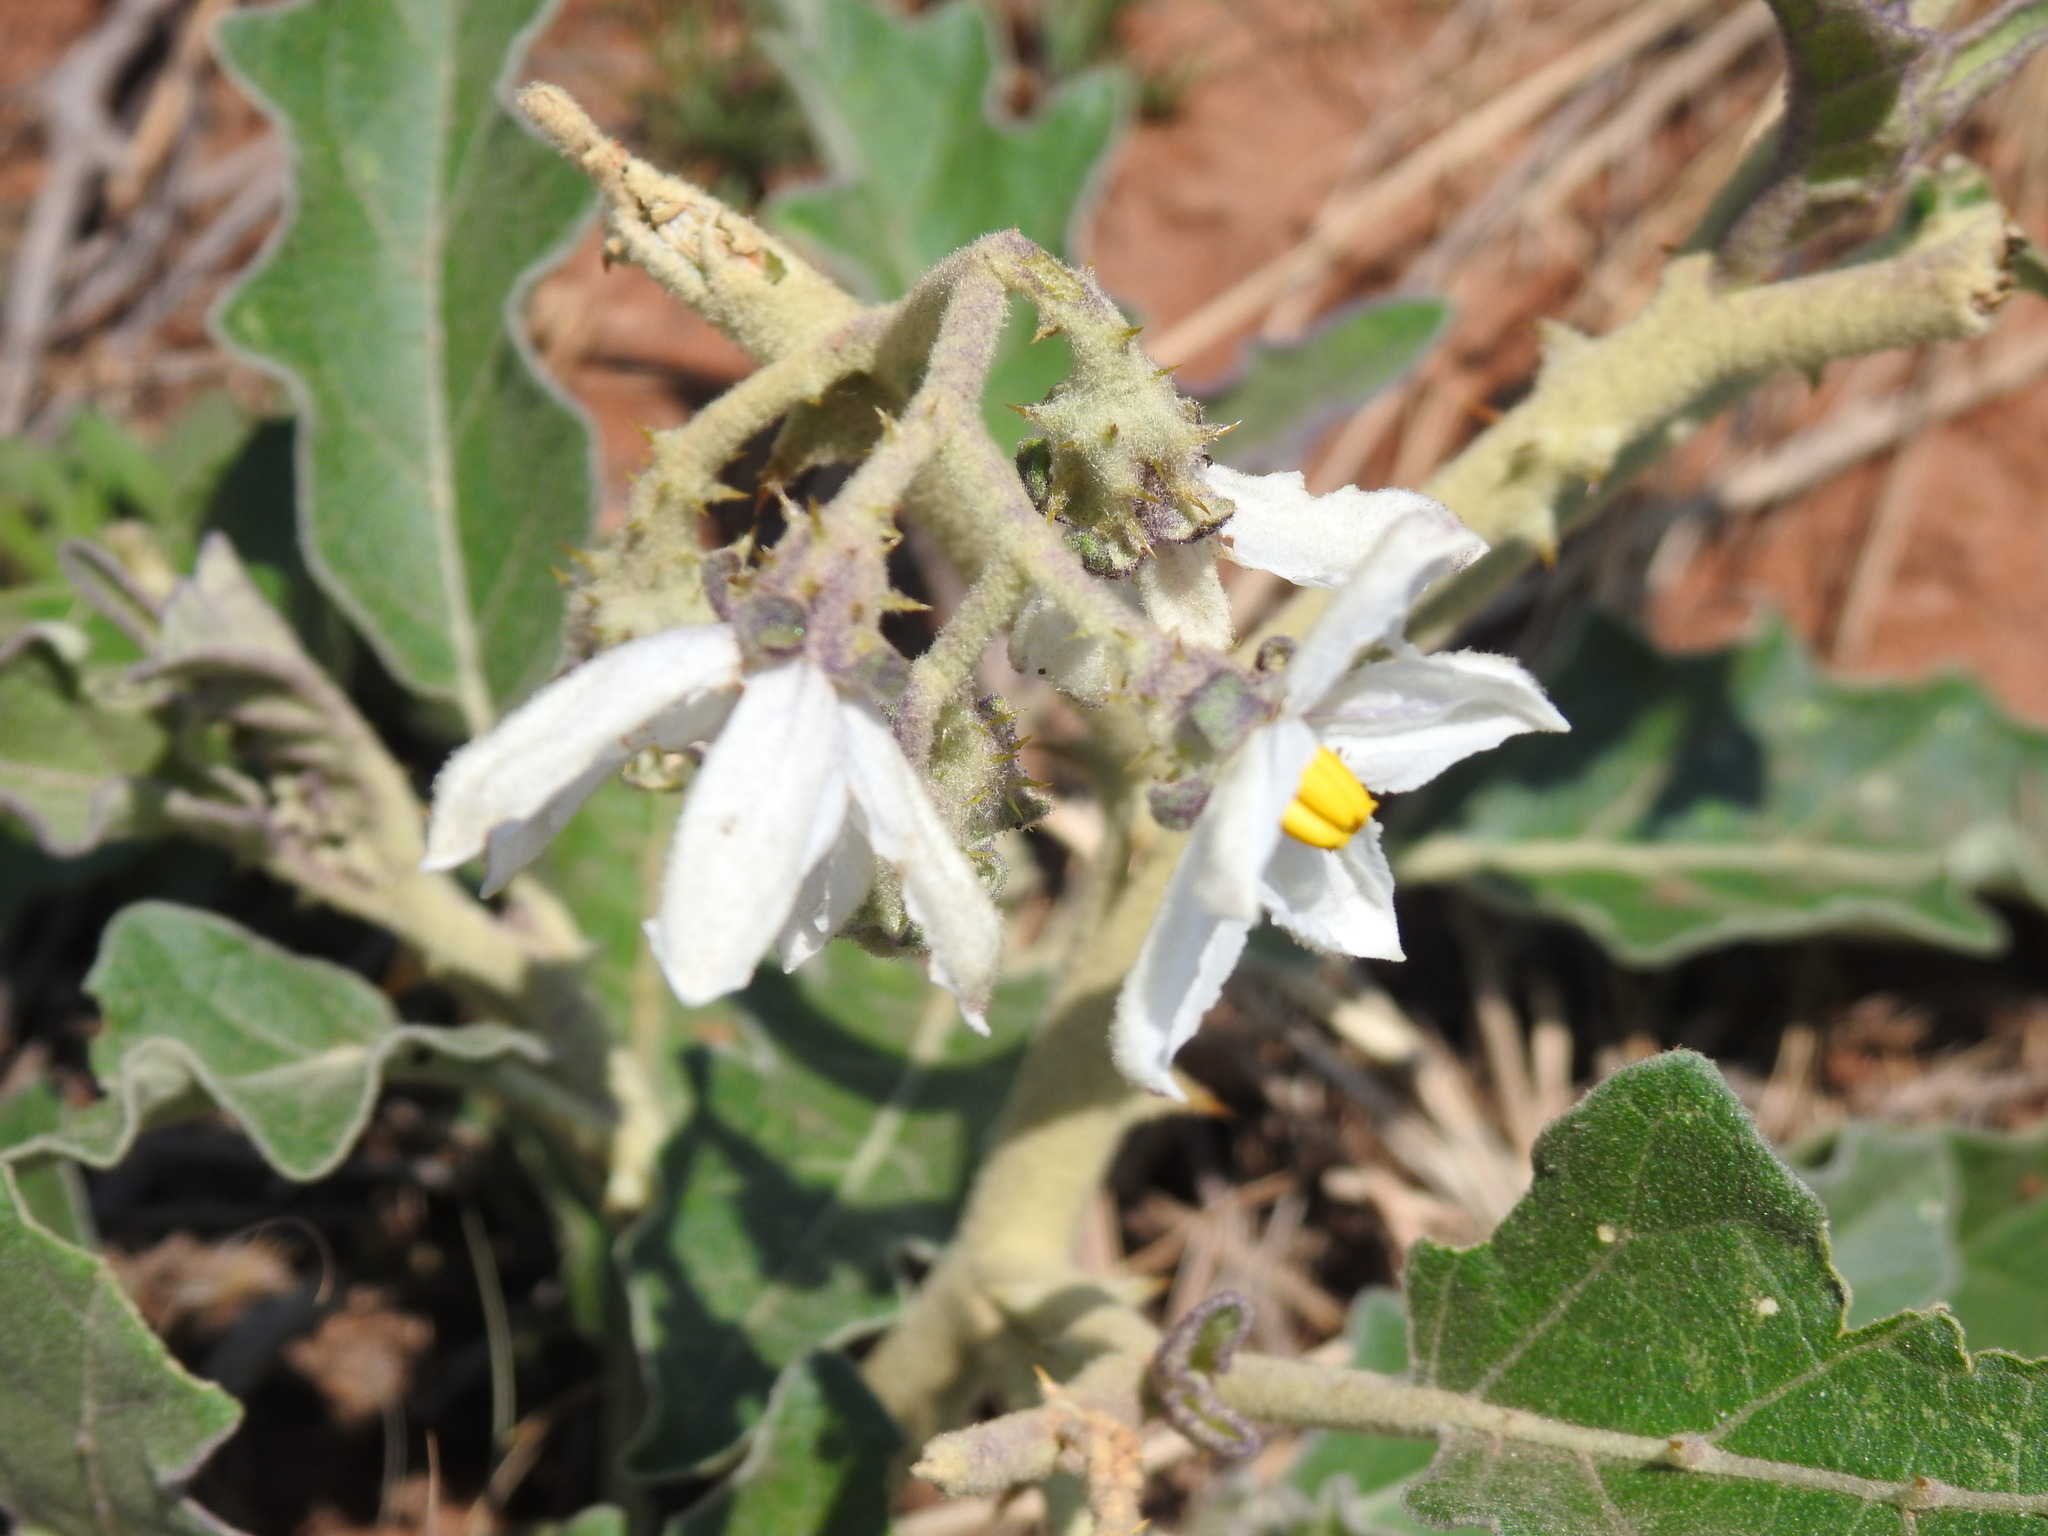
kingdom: Plantae
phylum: Tracheophyta
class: Magnoliopsida
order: Solanales
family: Solanaceae
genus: Solanum
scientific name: Solanum lichtensteinii
